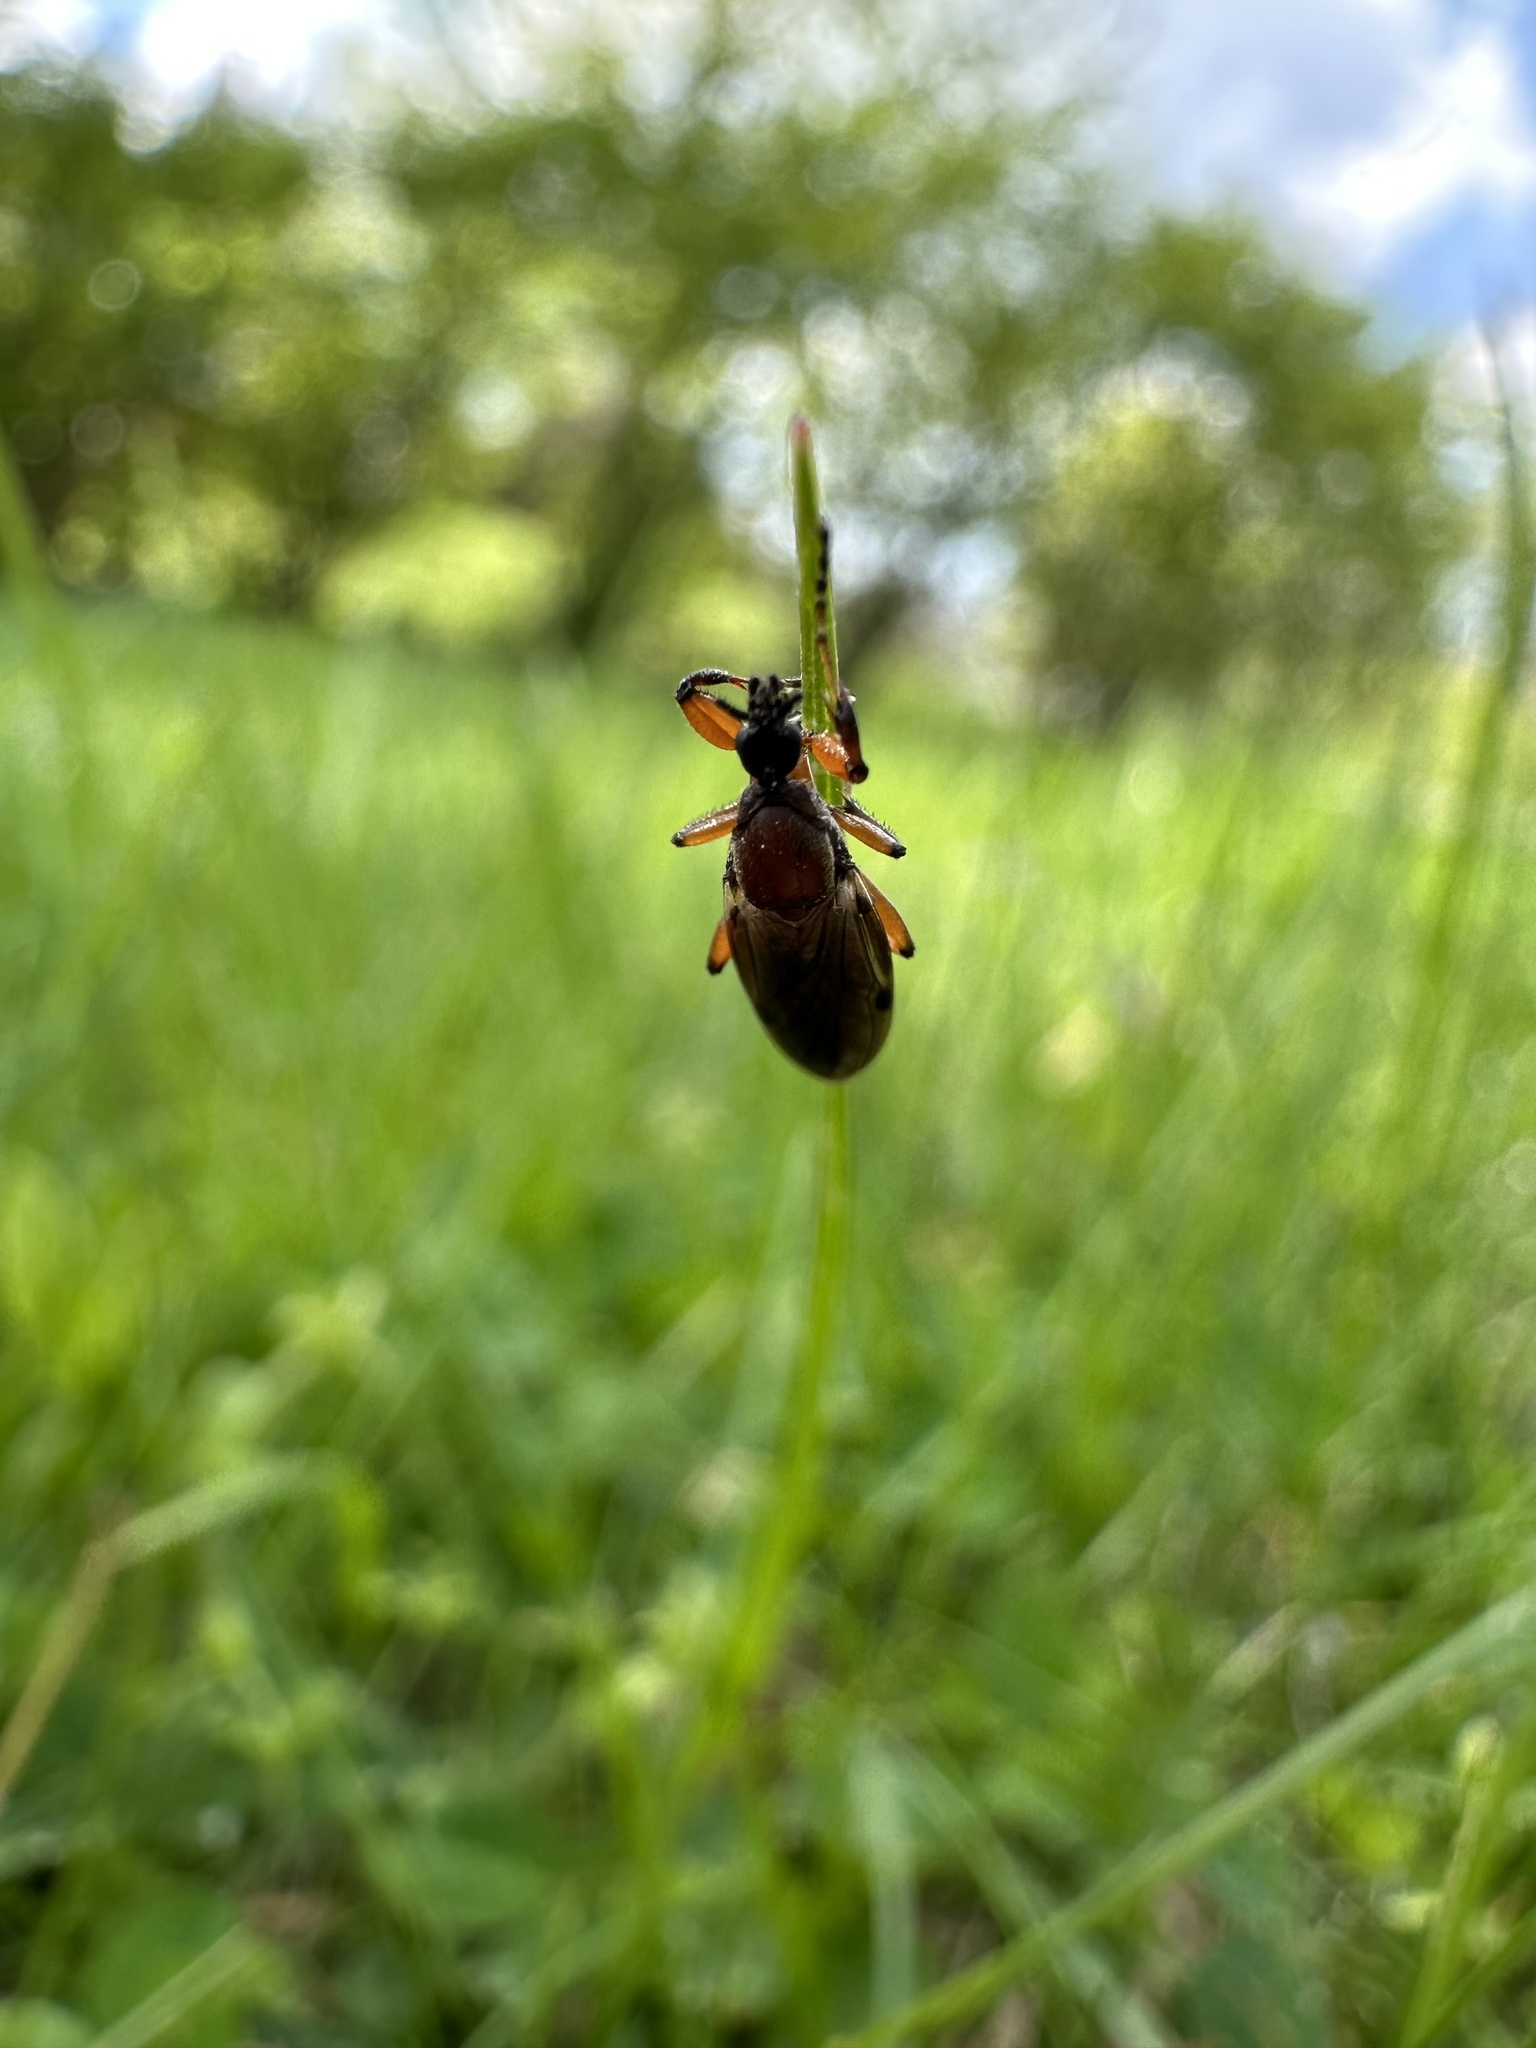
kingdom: Animalia
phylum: Arthropoda
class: Insecta
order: Diptera
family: Bibionidae
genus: Bibio
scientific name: Bibio articulatus
